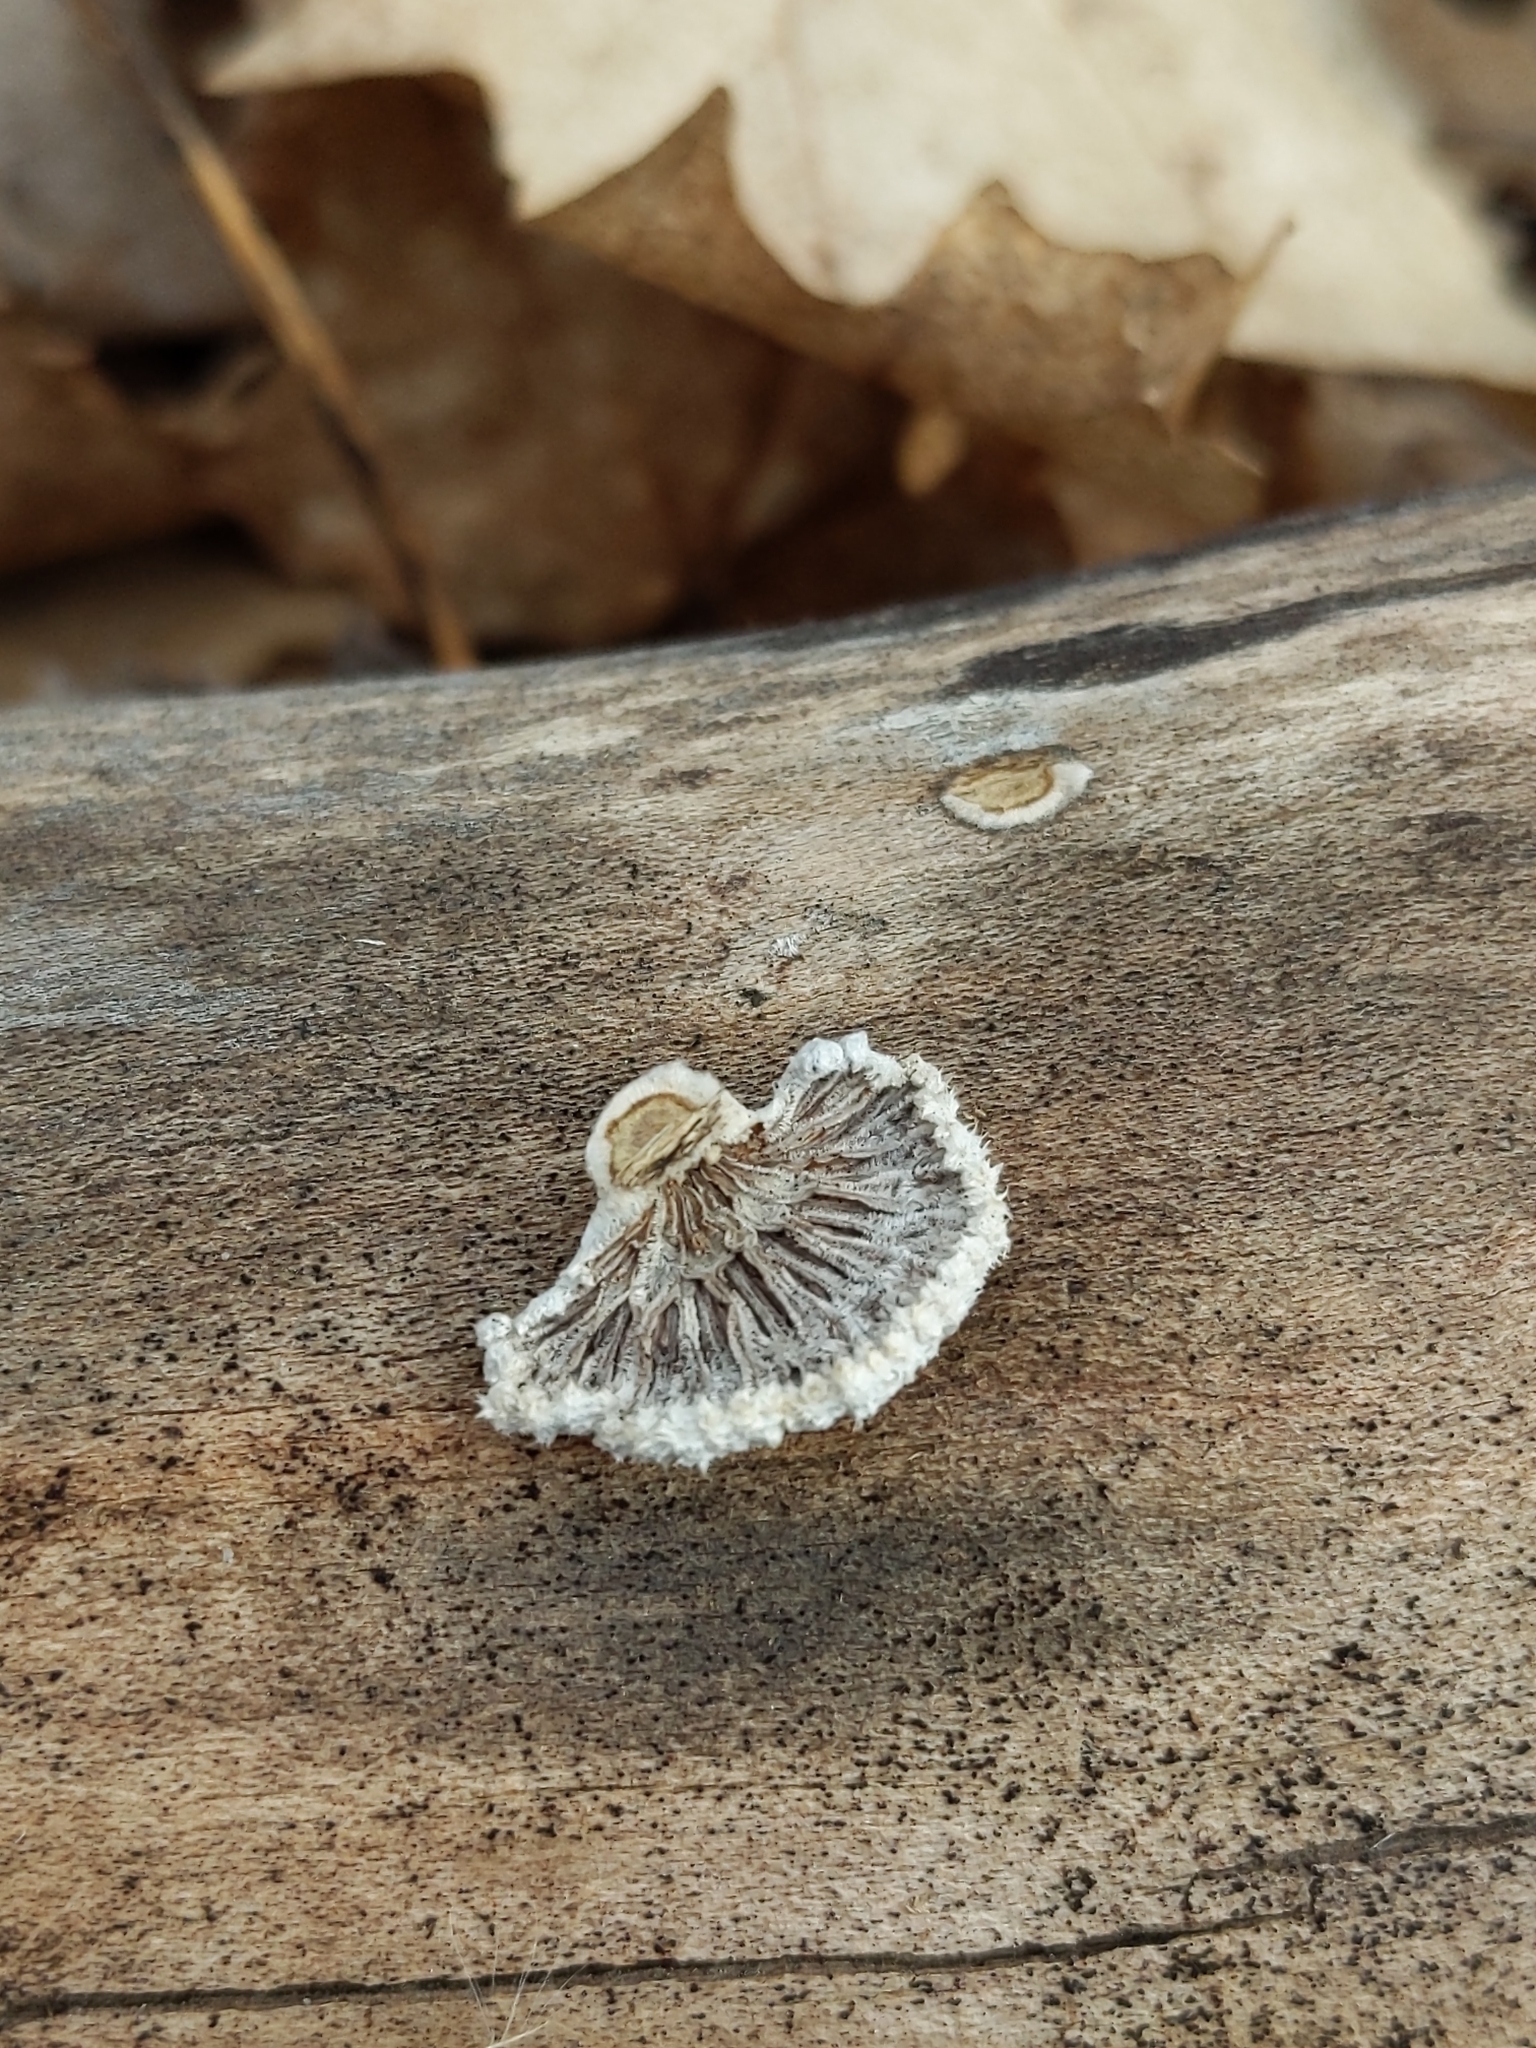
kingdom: Fungi
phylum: Basidiomycota
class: Agaricomycetes
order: Agaricales
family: Schizophyllaceae
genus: Schizophyllum
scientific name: Schizophyllum commune
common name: Common porecrust
